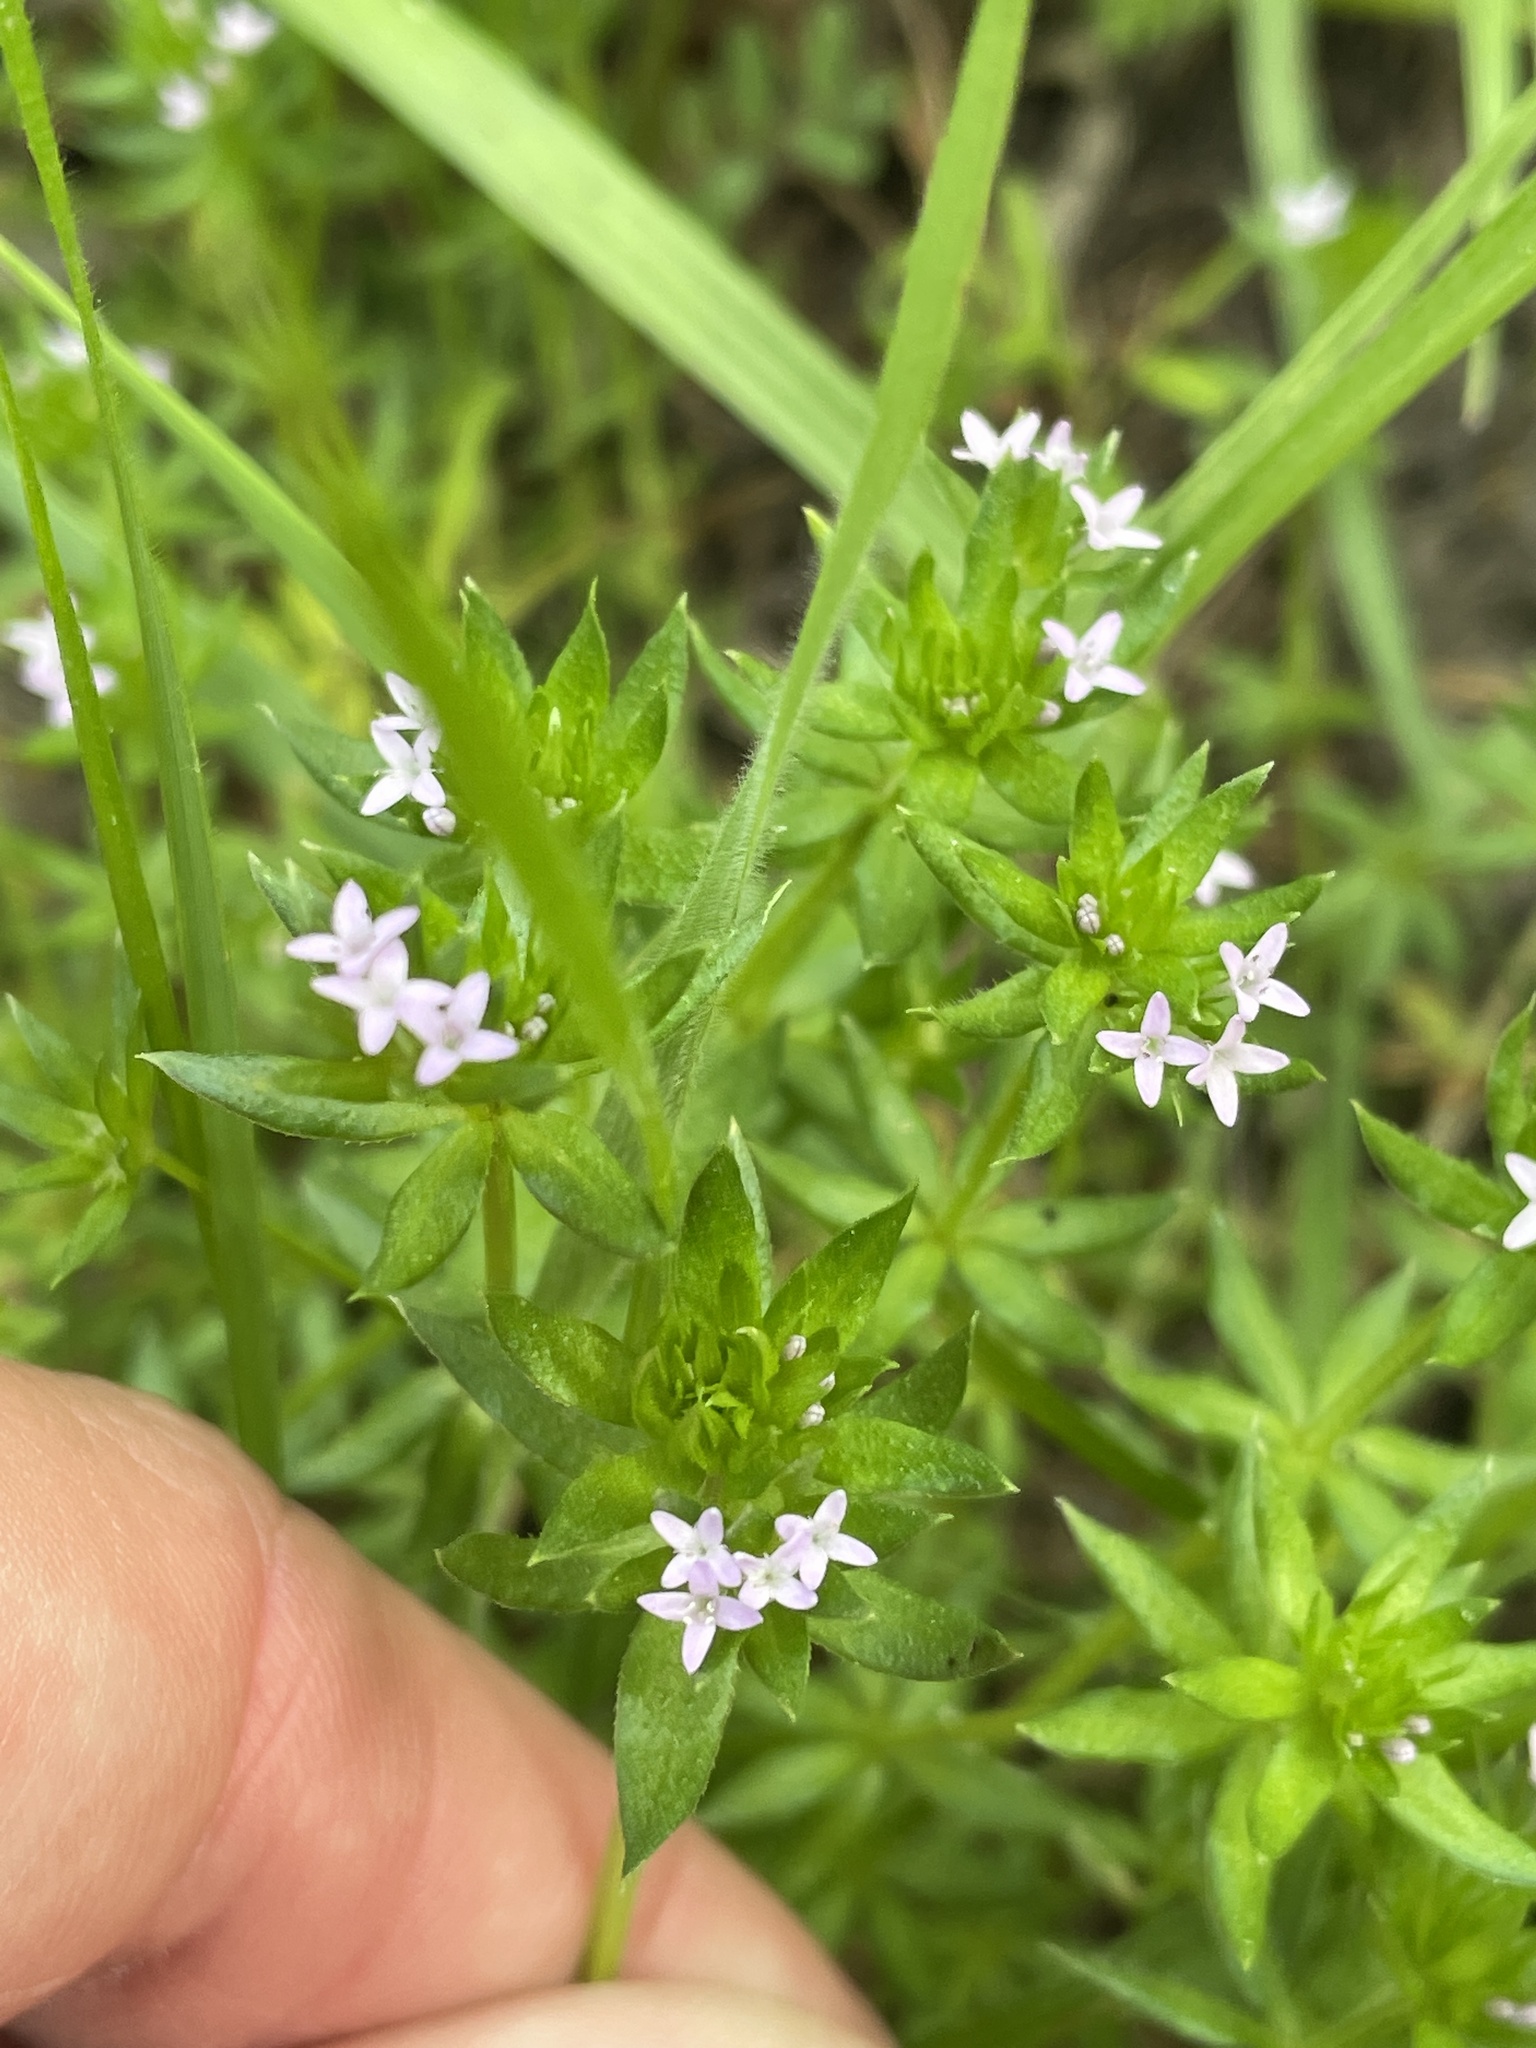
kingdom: Plantae
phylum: Tracheophyta
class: Magnoliopsida
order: Gentianales
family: Rubiaceae
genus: Sherardia
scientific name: Sherardia arvensis
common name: Field madder
